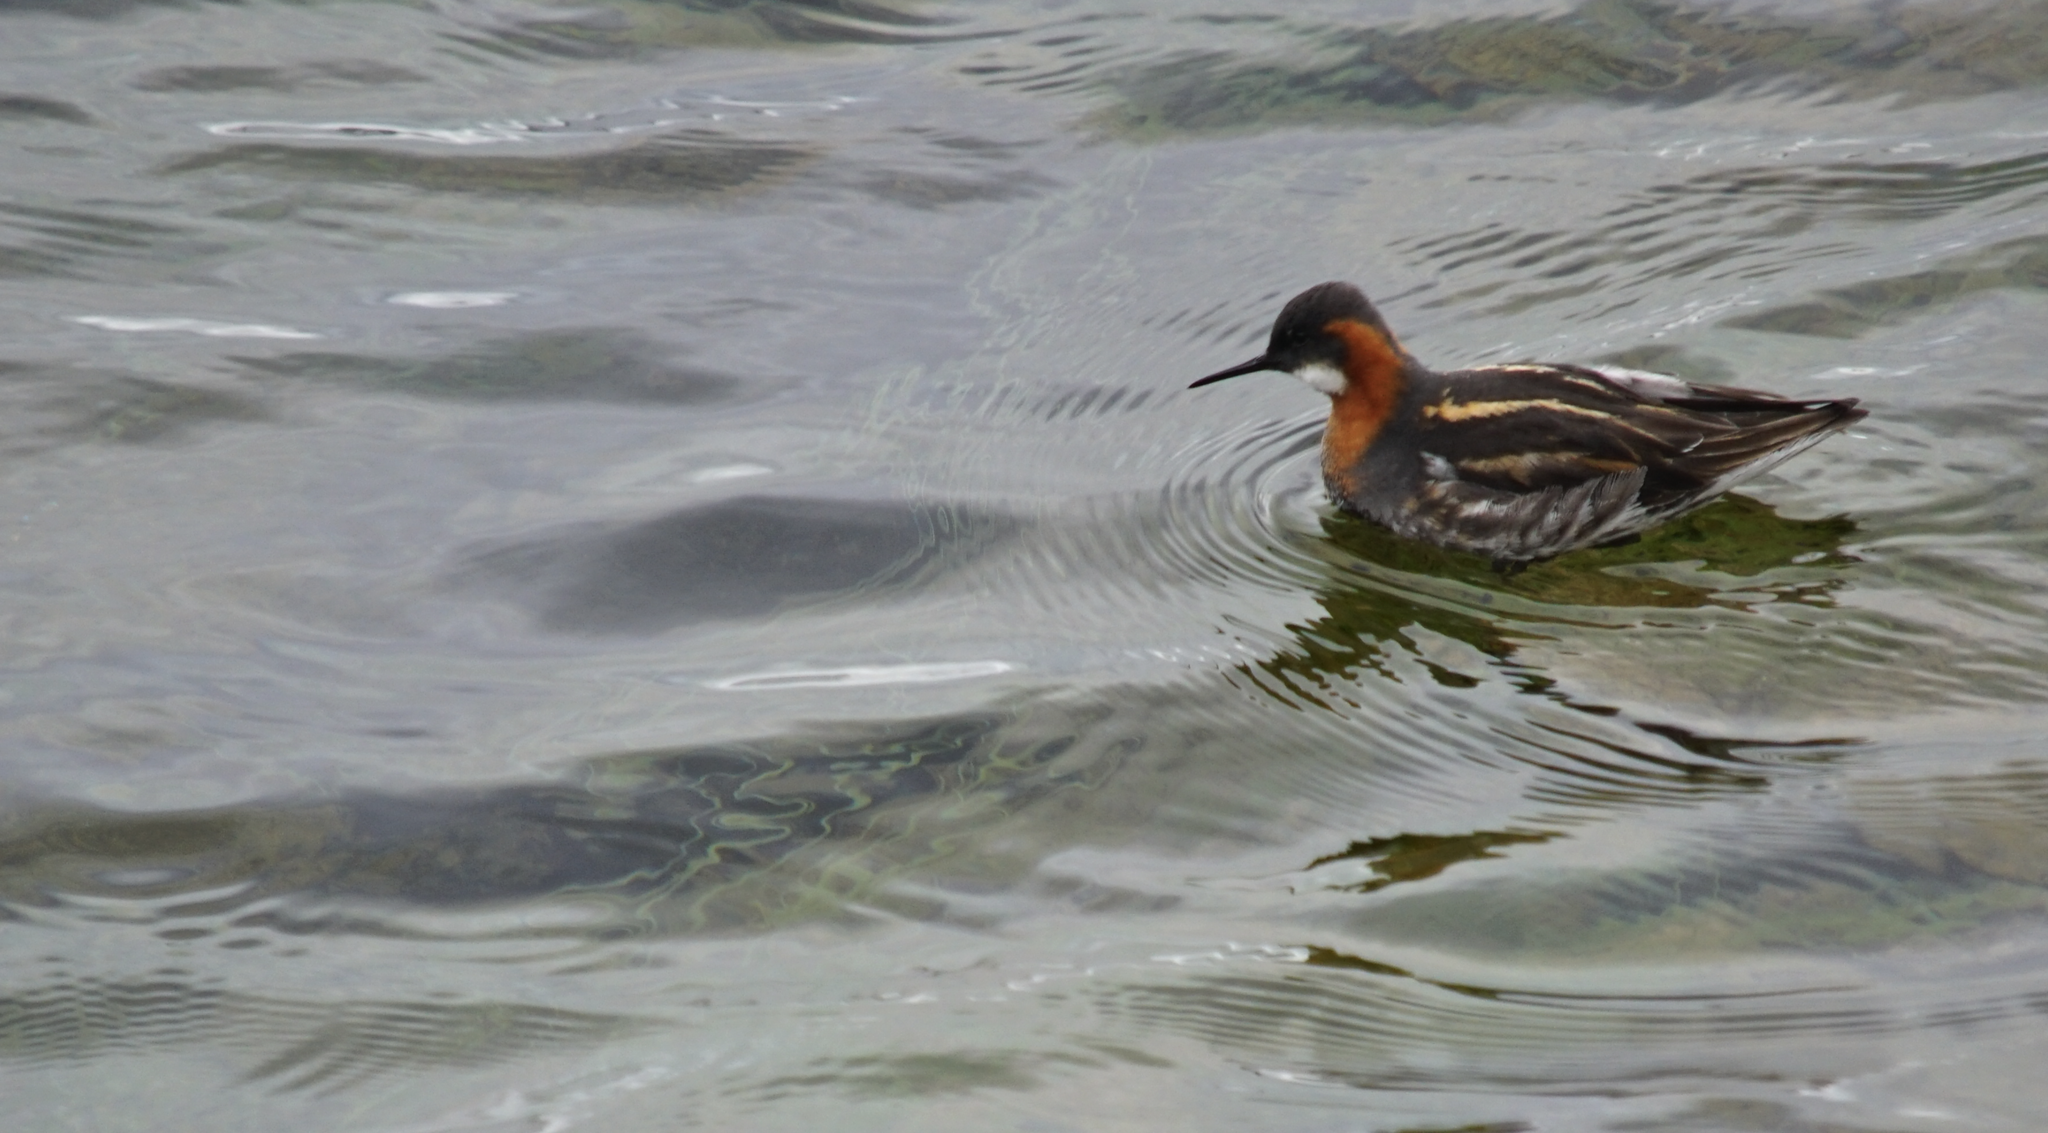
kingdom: Animalia
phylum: Chordata
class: Aves
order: Charadriiformes
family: Scolopacidae
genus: Phalaropus
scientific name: Phalaropus lobatus
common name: Red-necked phalarope
